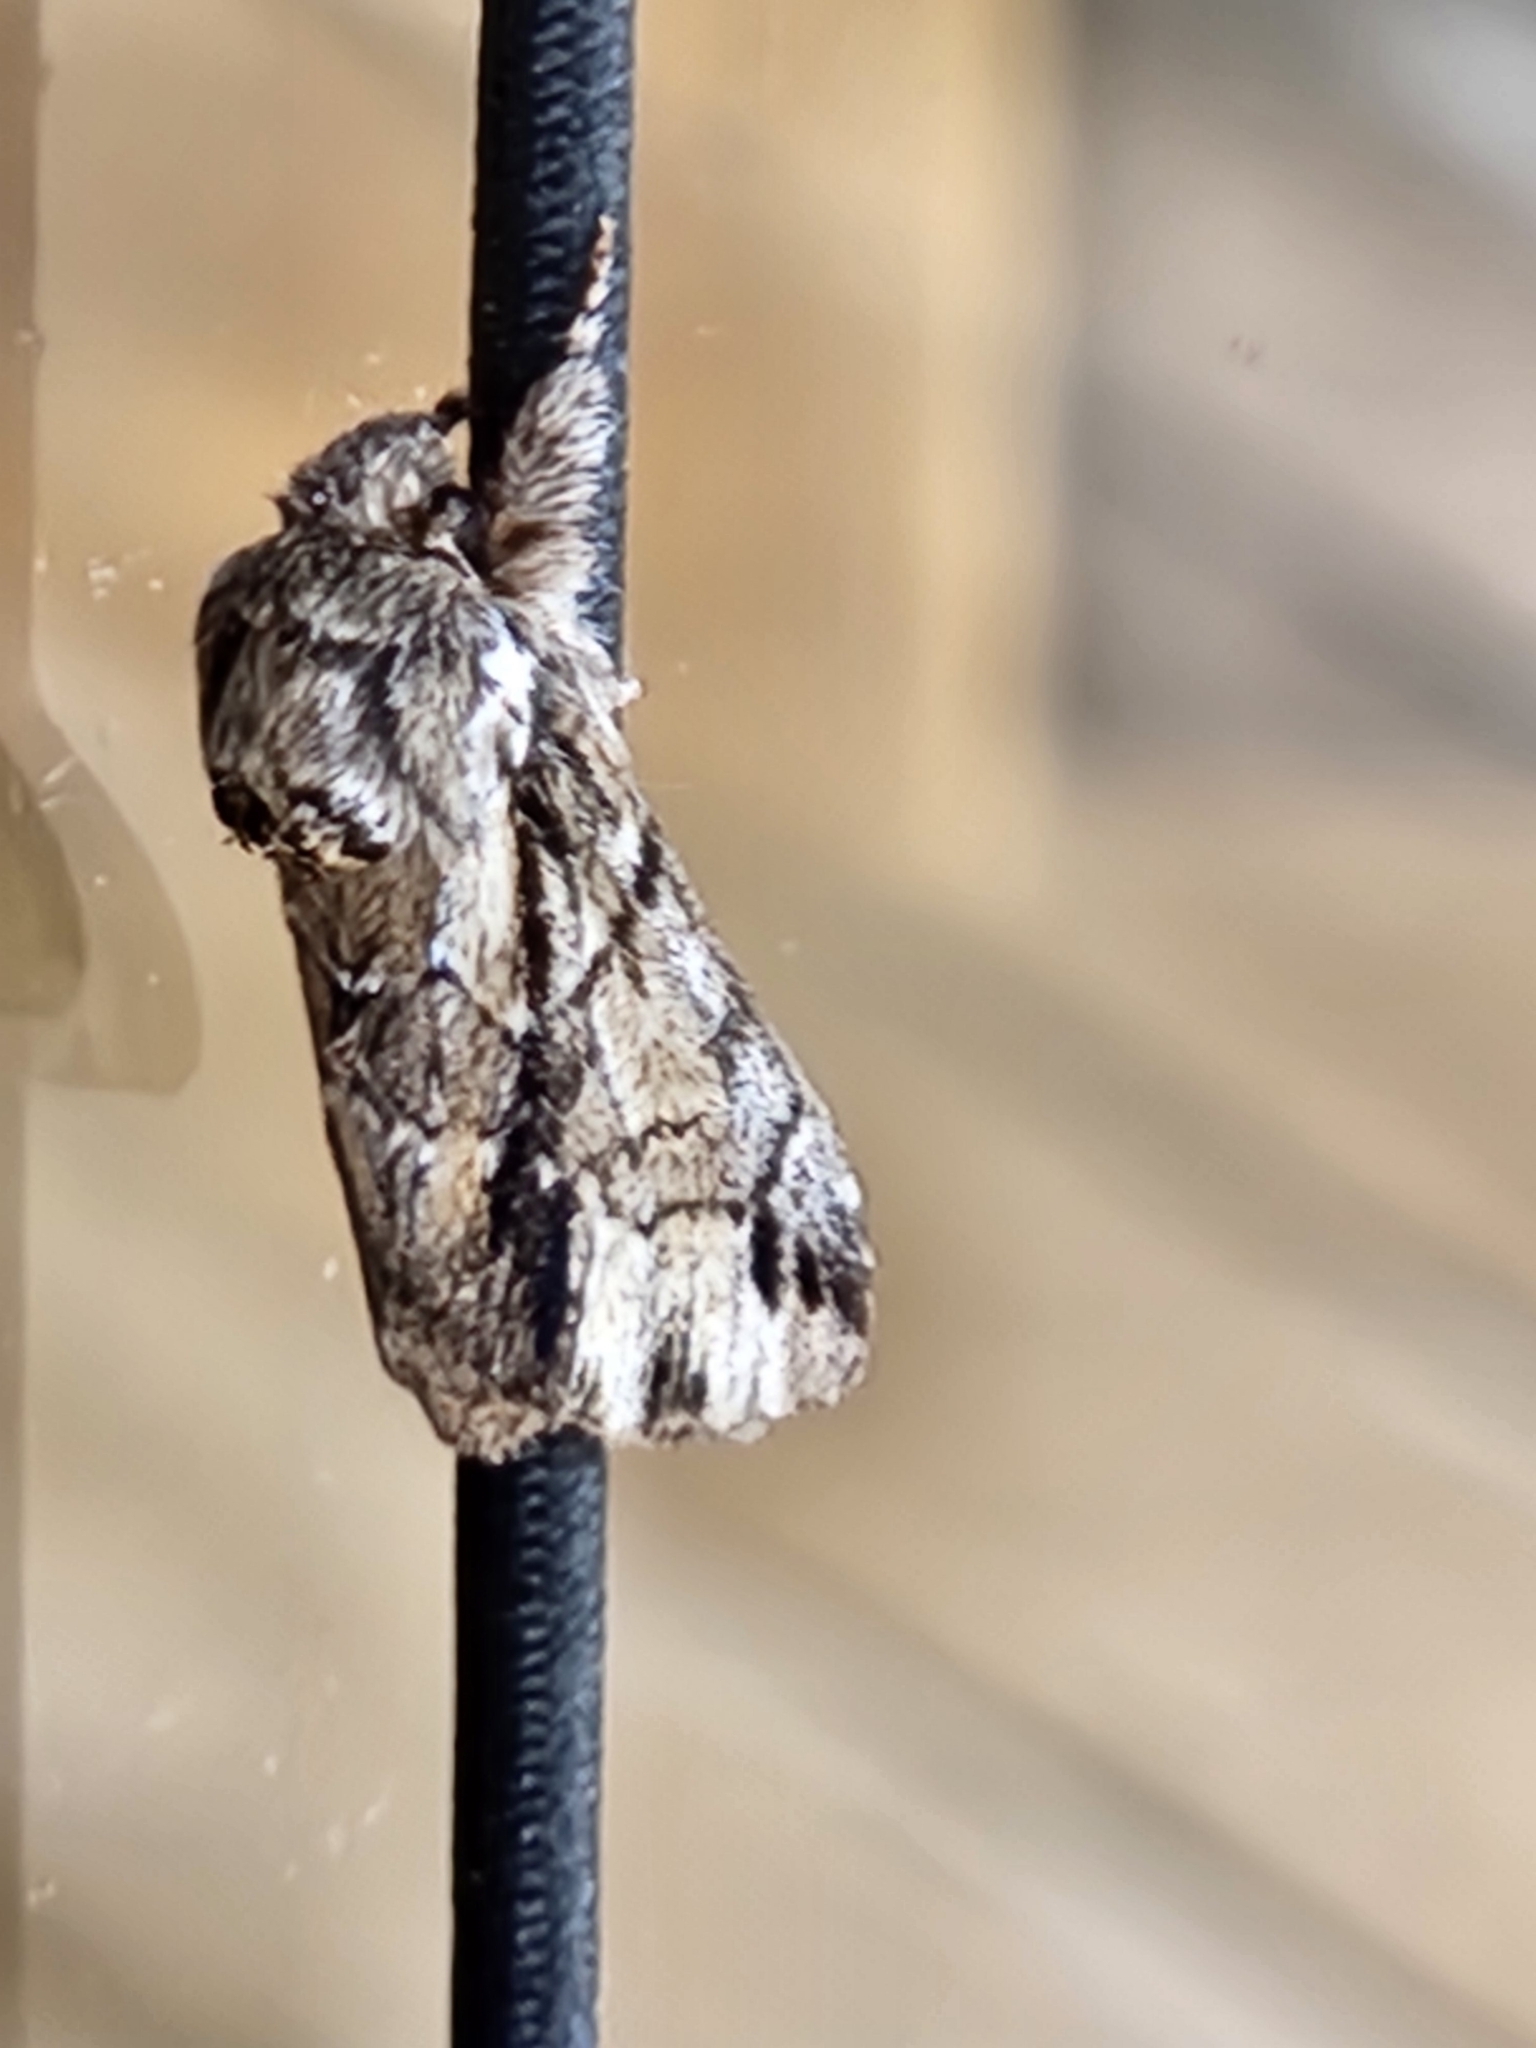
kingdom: Animalia
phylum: Arthropoda
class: Insecta
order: Lepidoptera
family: Notodontidae
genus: Paraeschra
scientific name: Paraeschra georgica
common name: Georgian prominent
